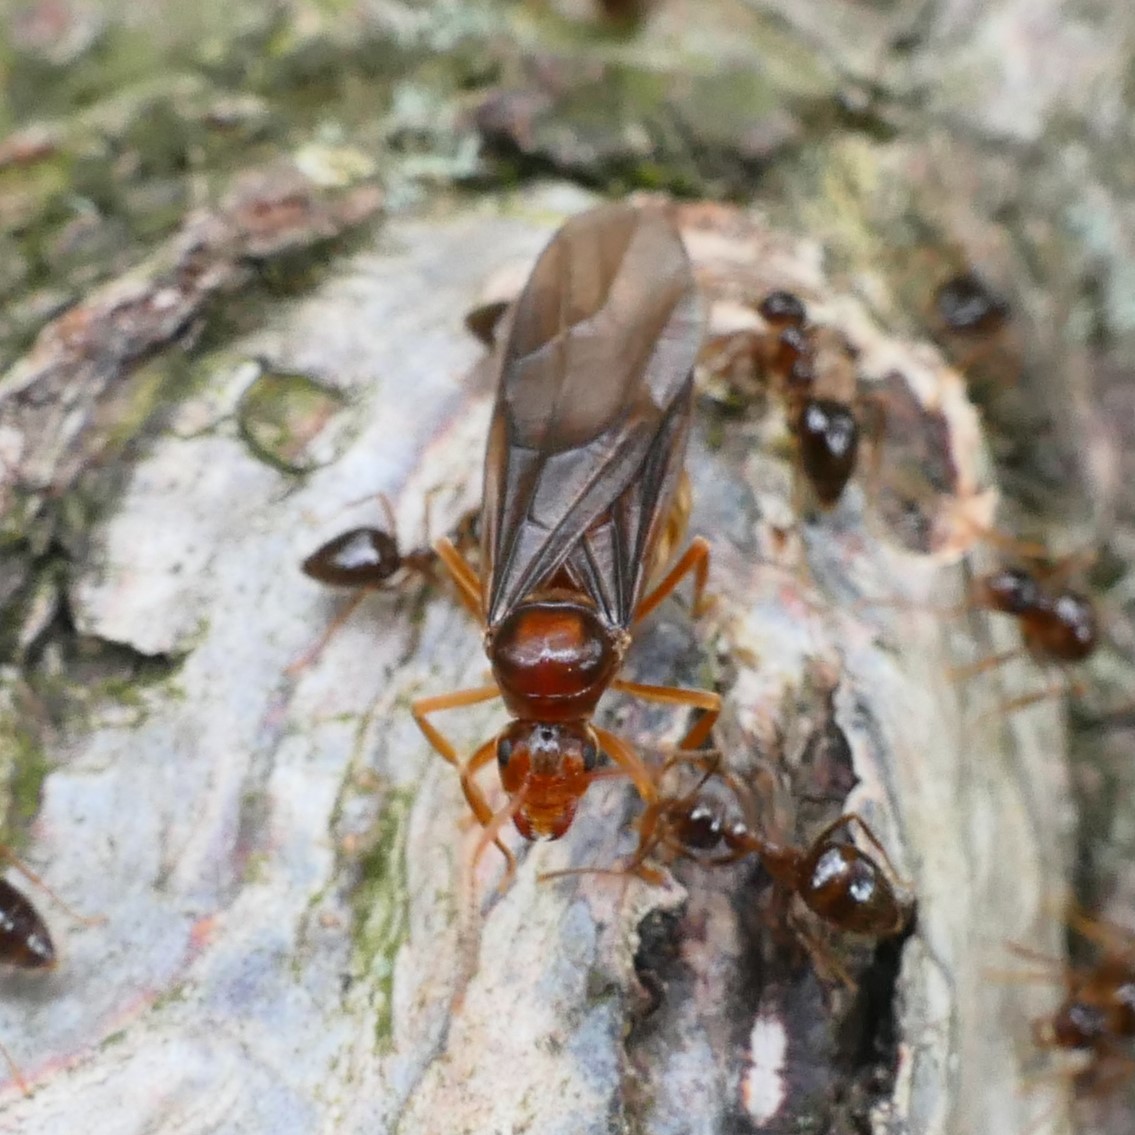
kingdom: Animalia
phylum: Arthropoda
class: Insecta
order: Hymenoptera
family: Formicidae
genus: Prenolepis
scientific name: Prenolepis nitens
